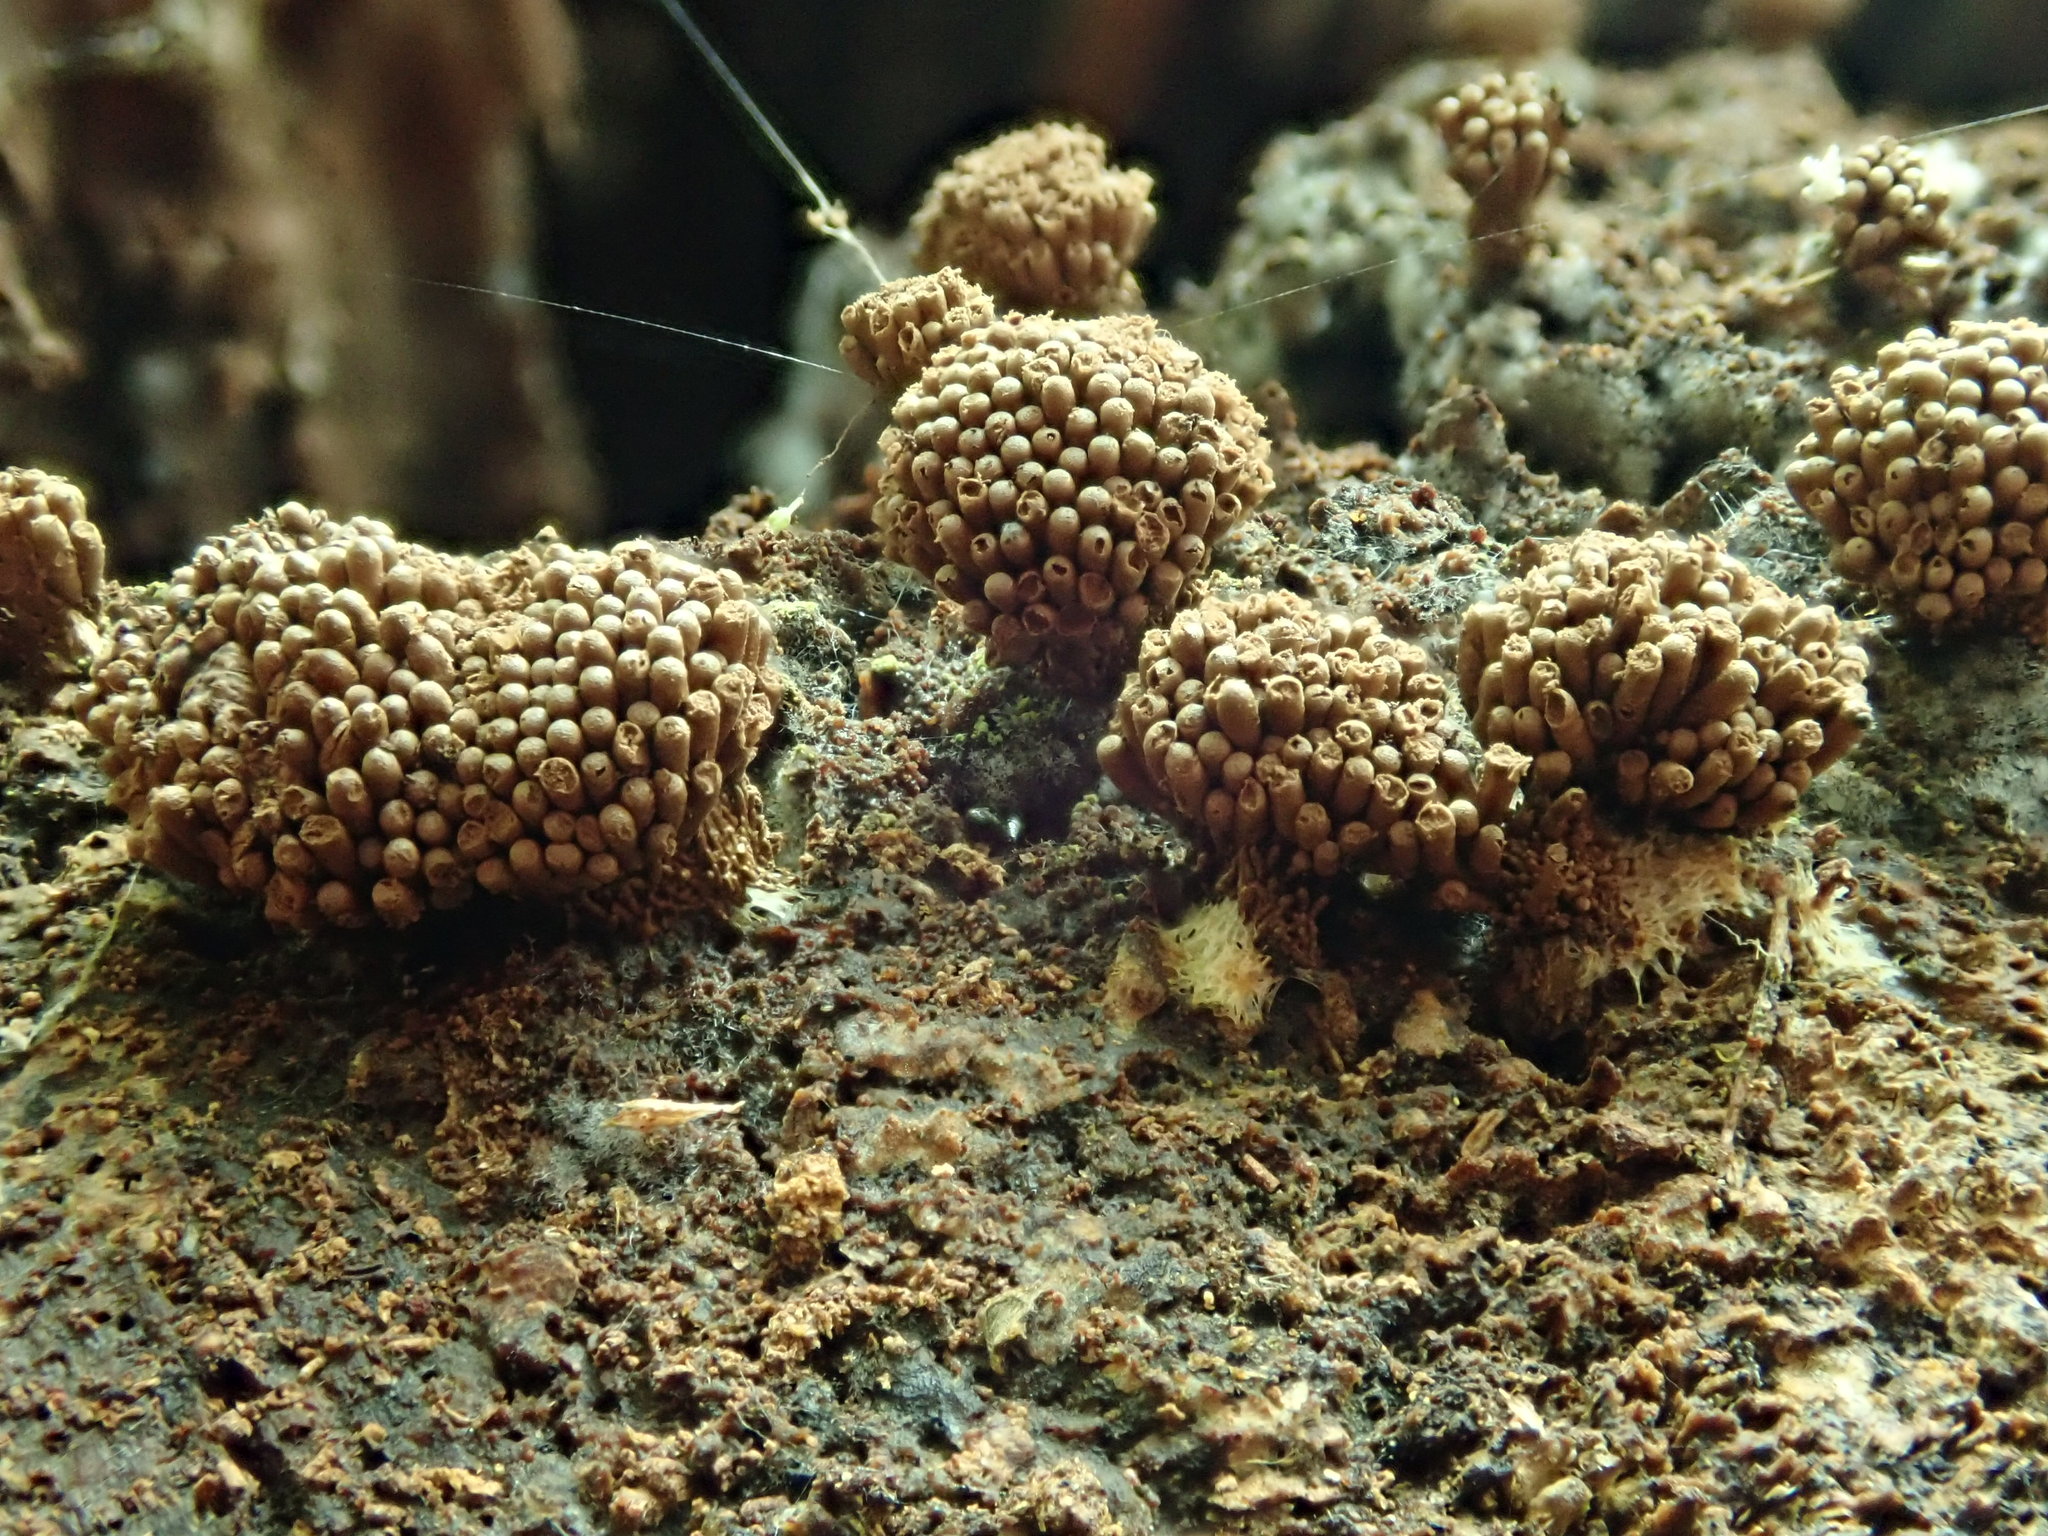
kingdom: Protozoa
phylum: Mycetozoa
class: Myxomycetes
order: Cribrariales
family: Tubiferaceae
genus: Tubifera
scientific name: Tubifera corymbosa
